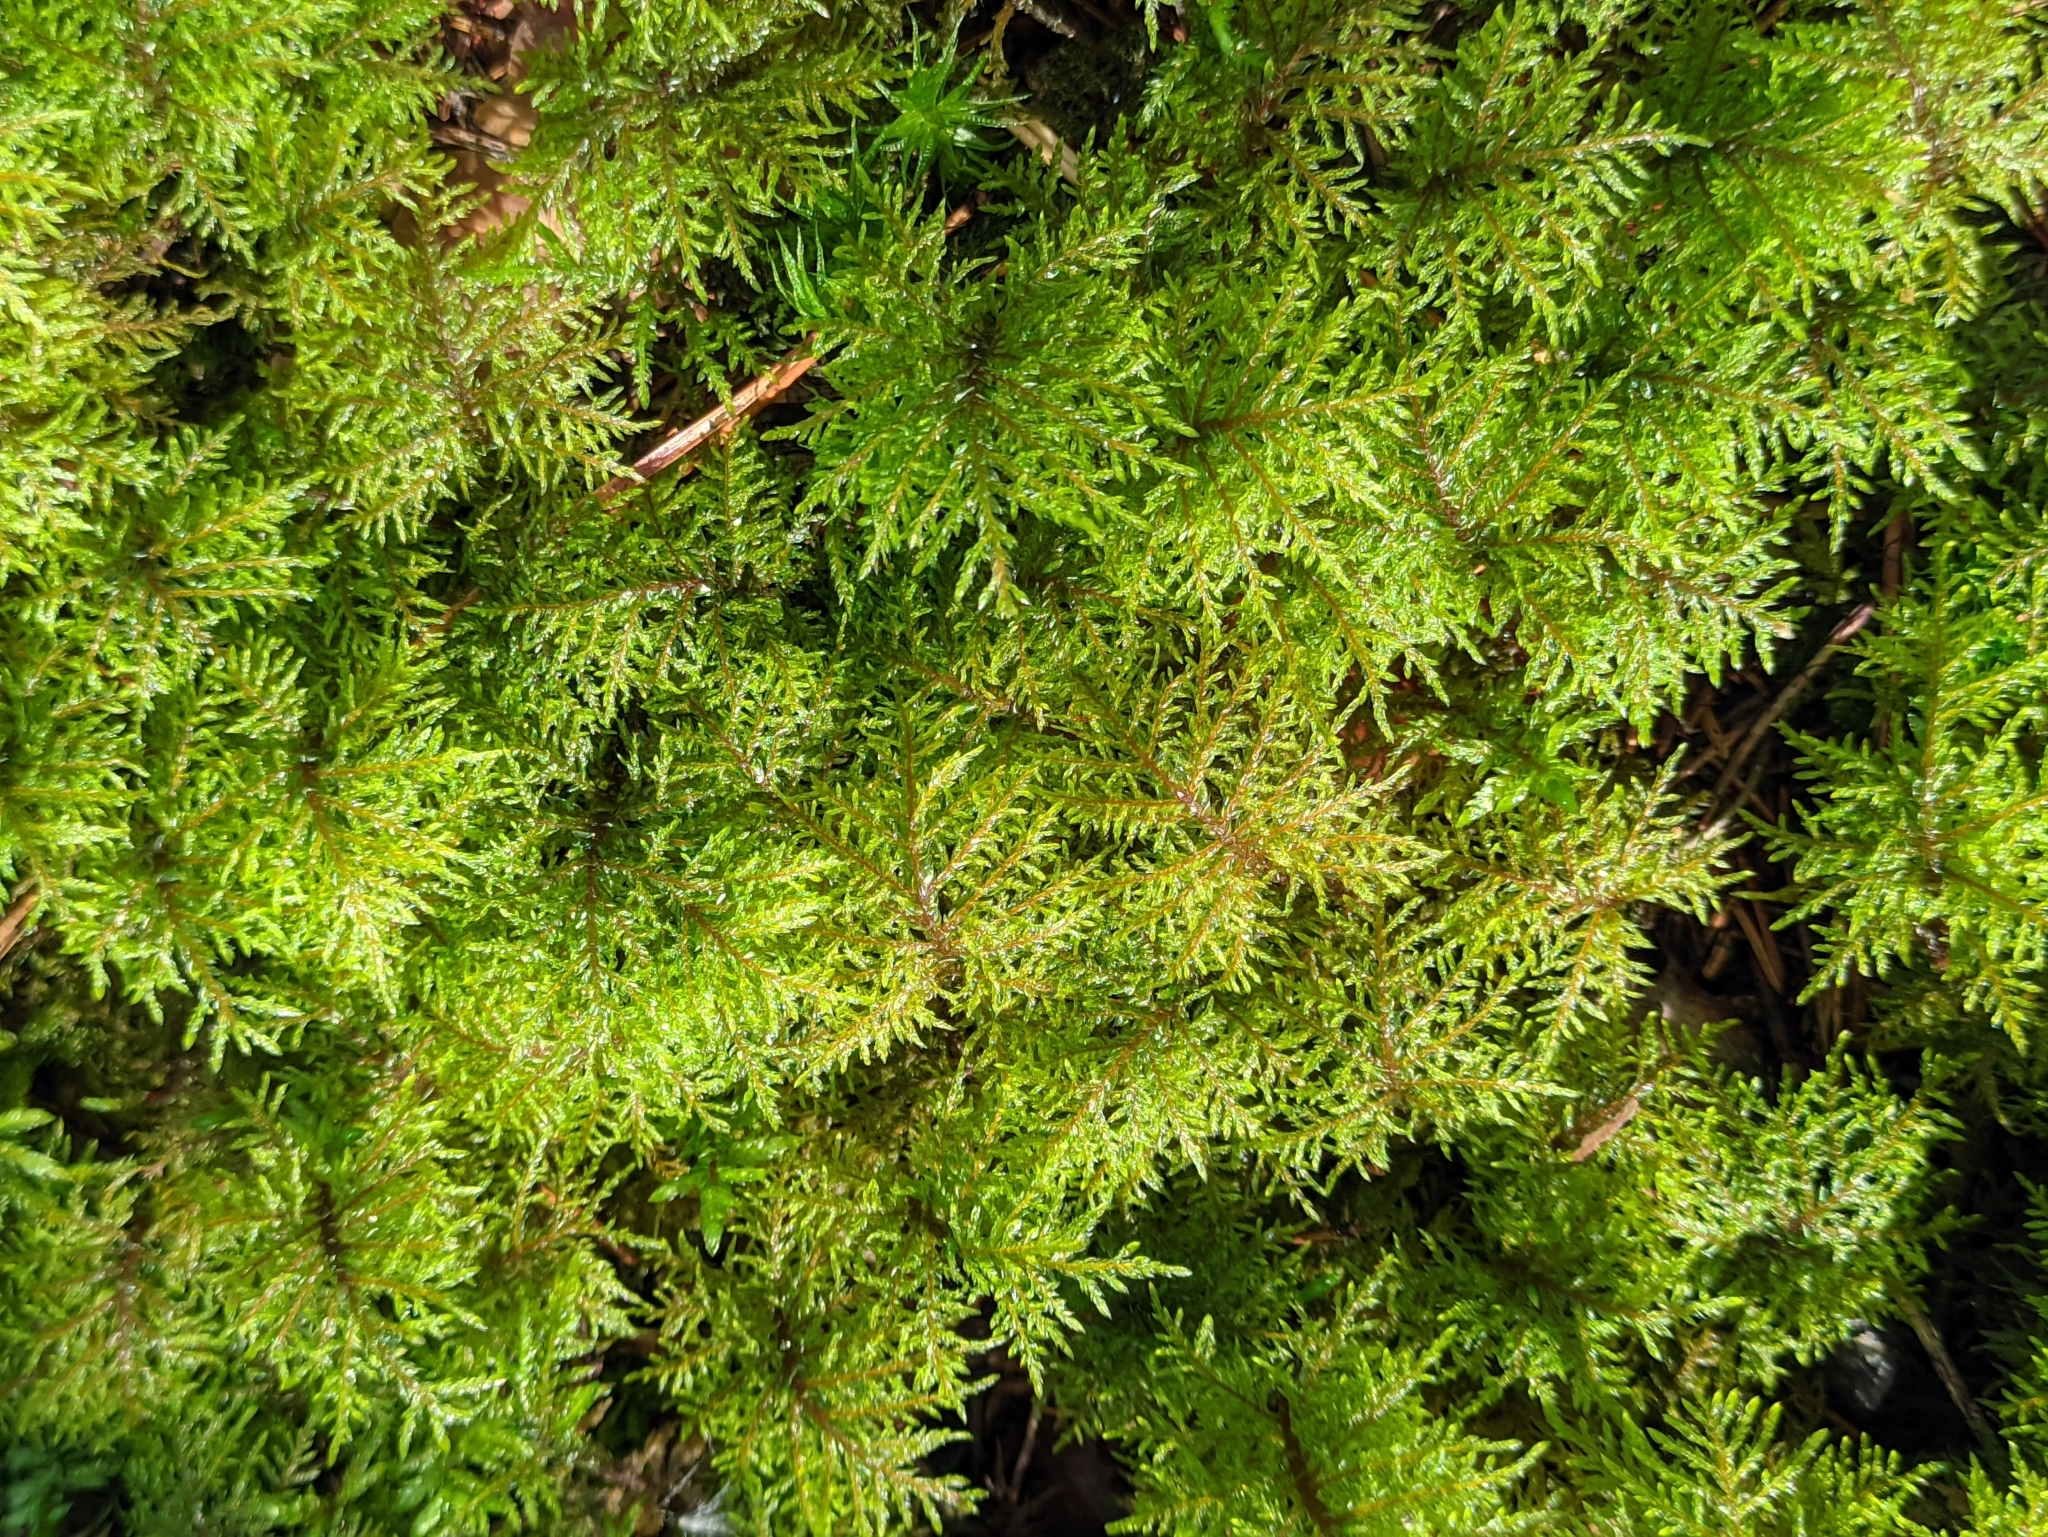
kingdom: Plantae
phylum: Bryophyta
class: Bryopsida
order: Hypnales
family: Hylocomiaceae
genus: Hylocomium
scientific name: Hylocomium splendens
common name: Stairstep moss
